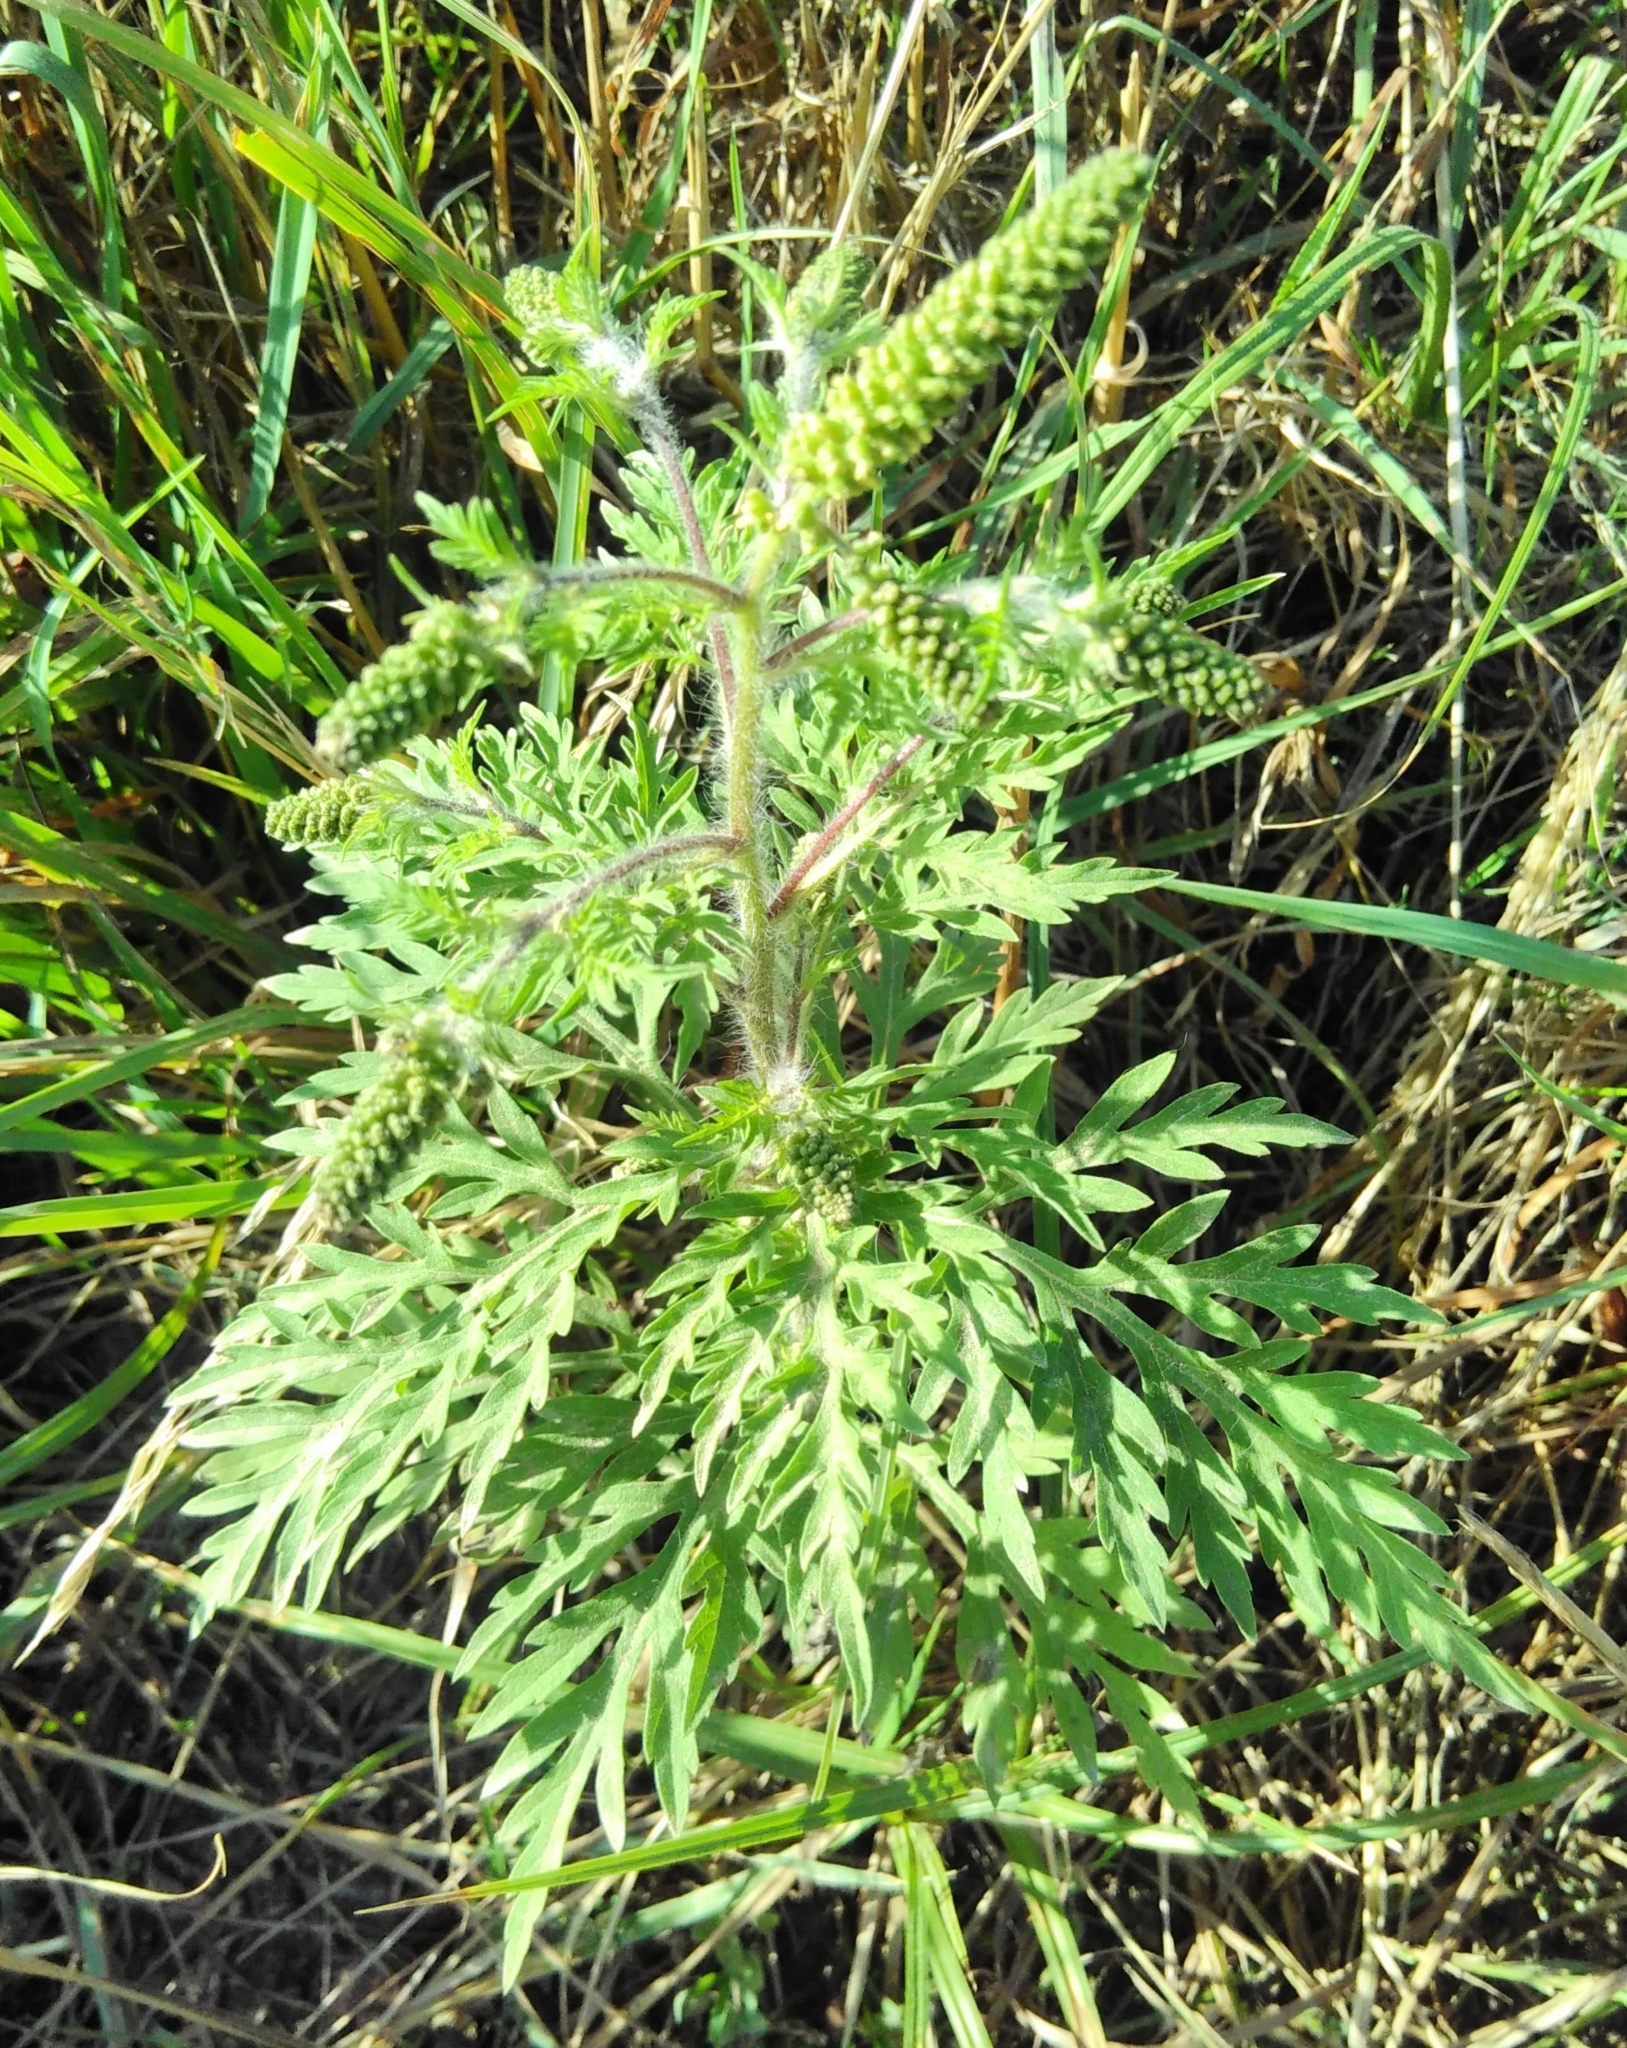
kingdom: Plantae
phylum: Tracheophyta
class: Magnoliopsida
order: Asterales
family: Asteraceae
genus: Ambrosia
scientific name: Ambrosia artemisiifolia
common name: Annual ragweed
